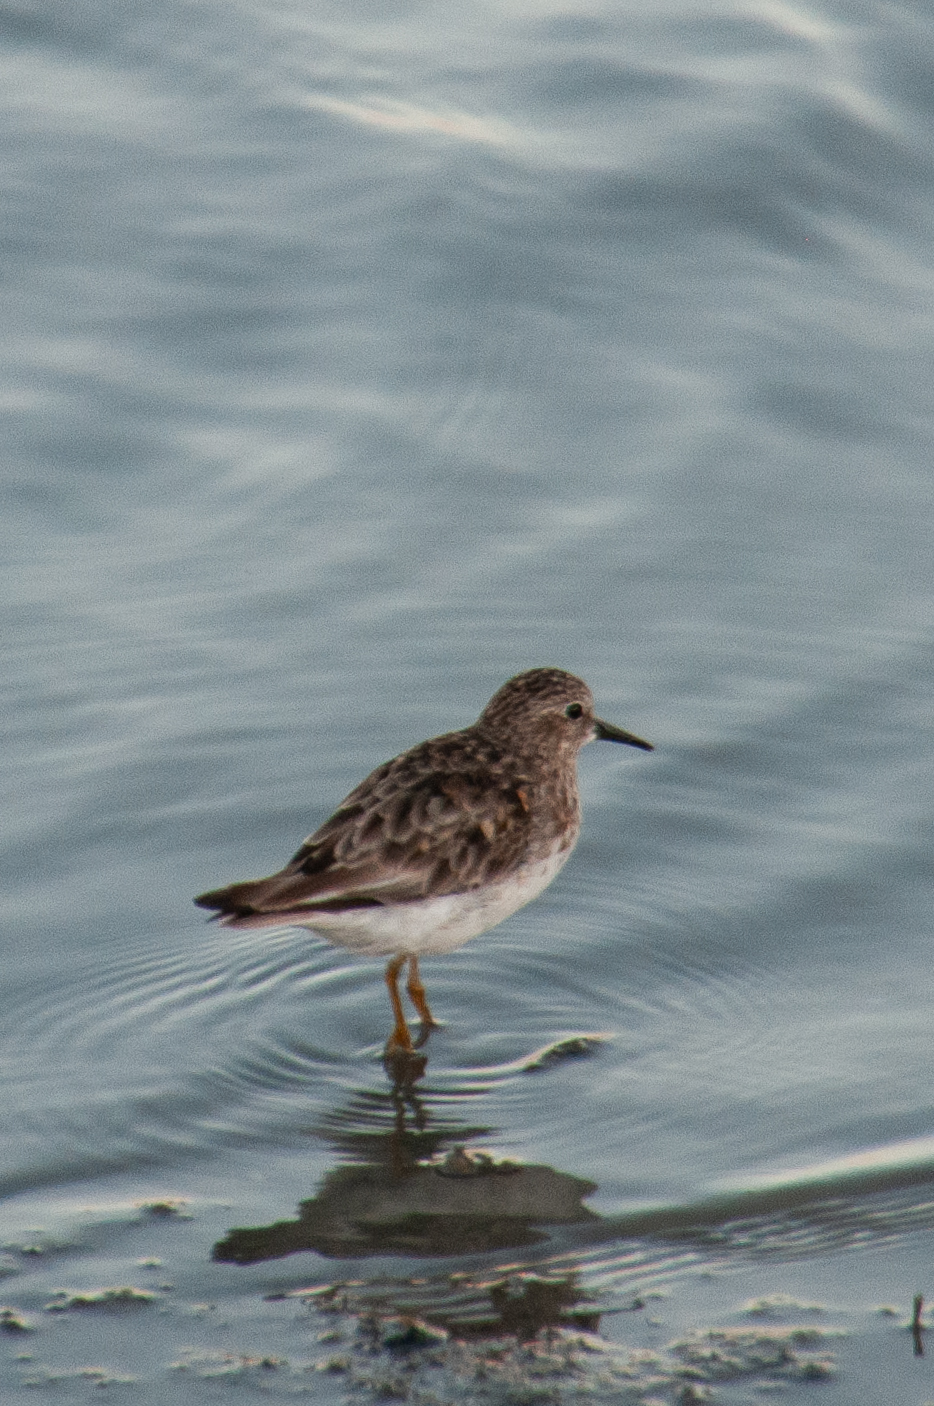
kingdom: Animalia
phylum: Chordata
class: Aves
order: Charadriiformes
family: Scolopacidae
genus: Calidris
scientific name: Calidris minutilla
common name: Least sandpiper
